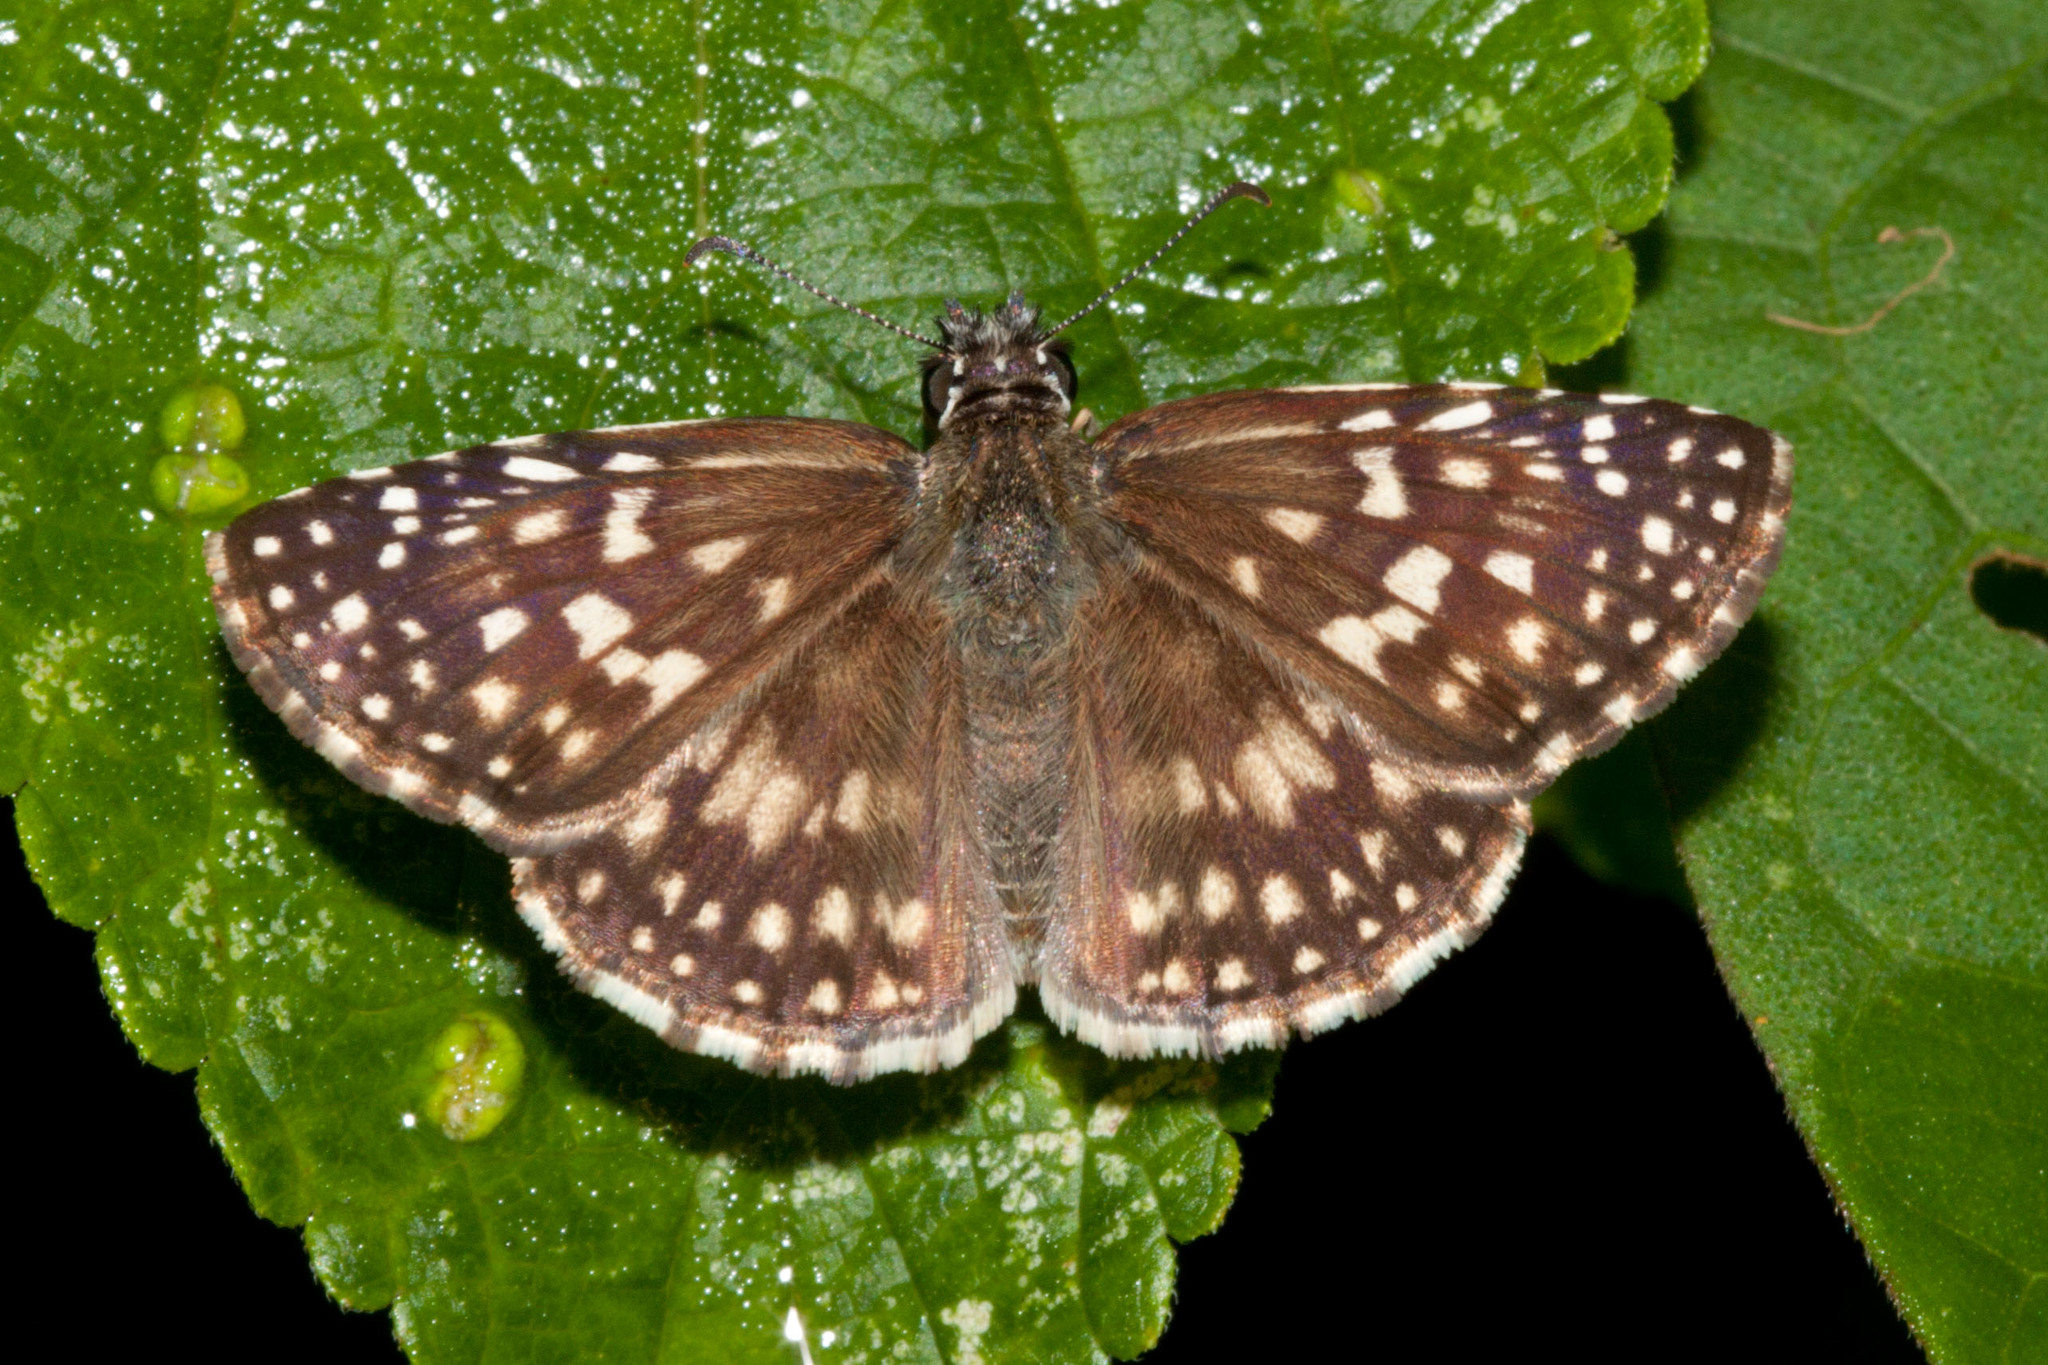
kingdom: Animalia
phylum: Arthropoda
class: Insecta
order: Lepidoptera
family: Hesperiidae
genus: Pyrgus
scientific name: Pyrgus oileus
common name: Tropical checkered-skipper
